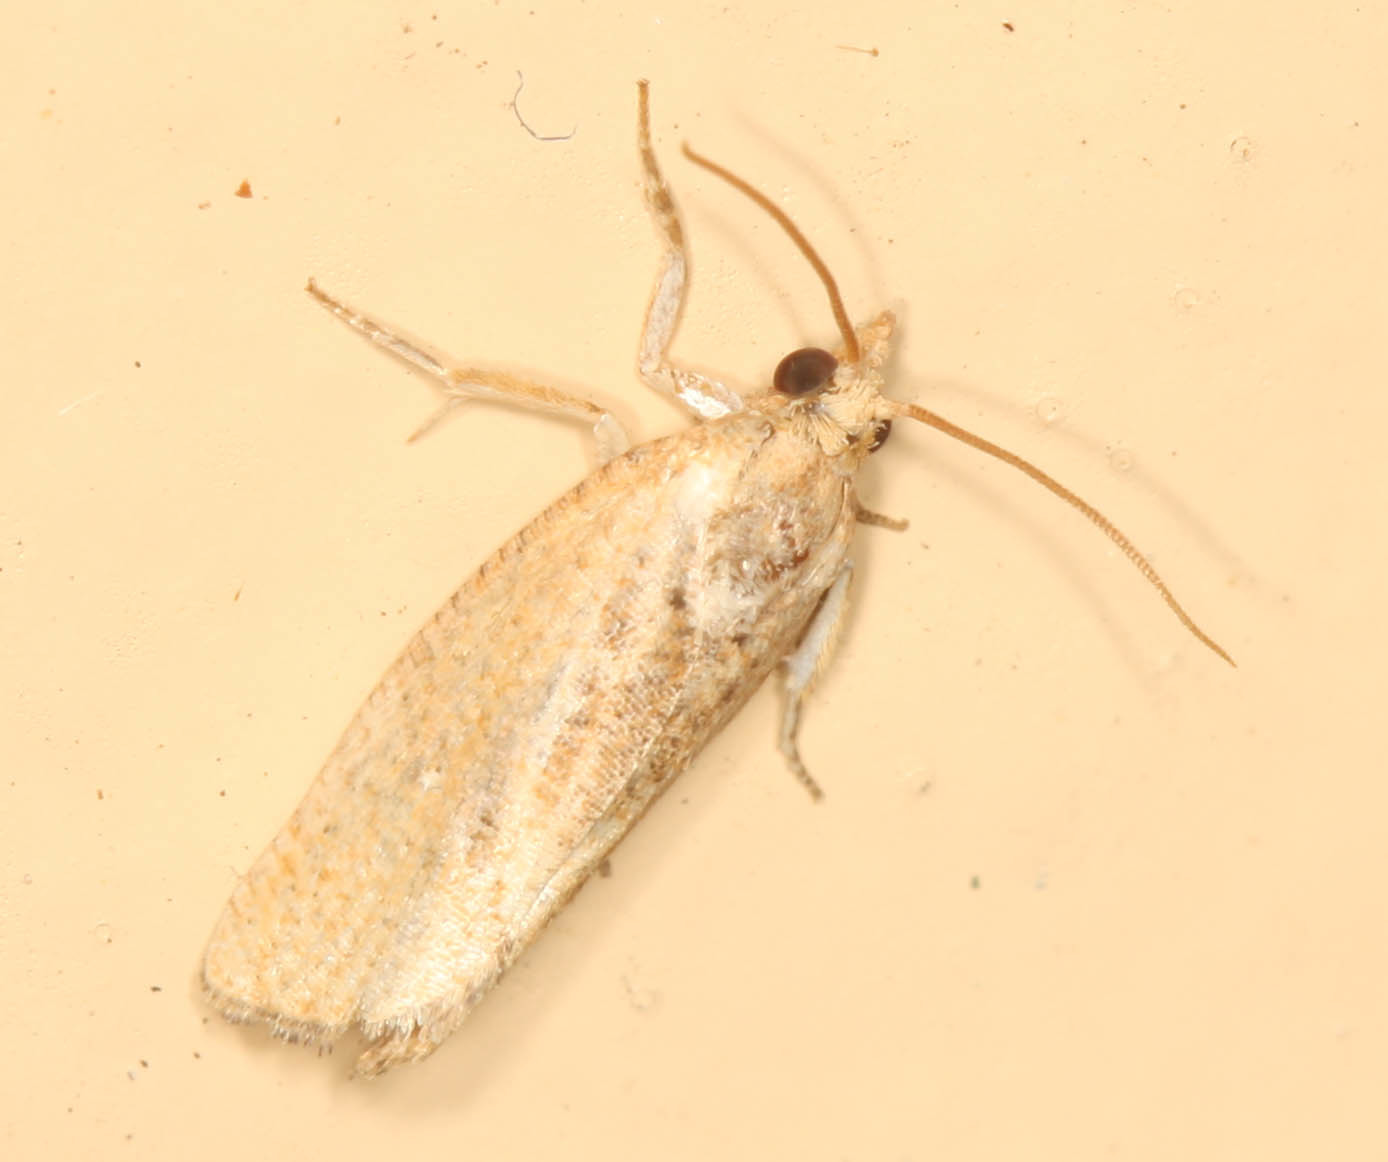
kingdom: Animalia
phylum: Arthropoda
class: Insecta
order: Lepidoptera
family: Tortricidae
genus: Cryptophlebia
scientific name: Cryptophlebia illepida
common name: Moth
